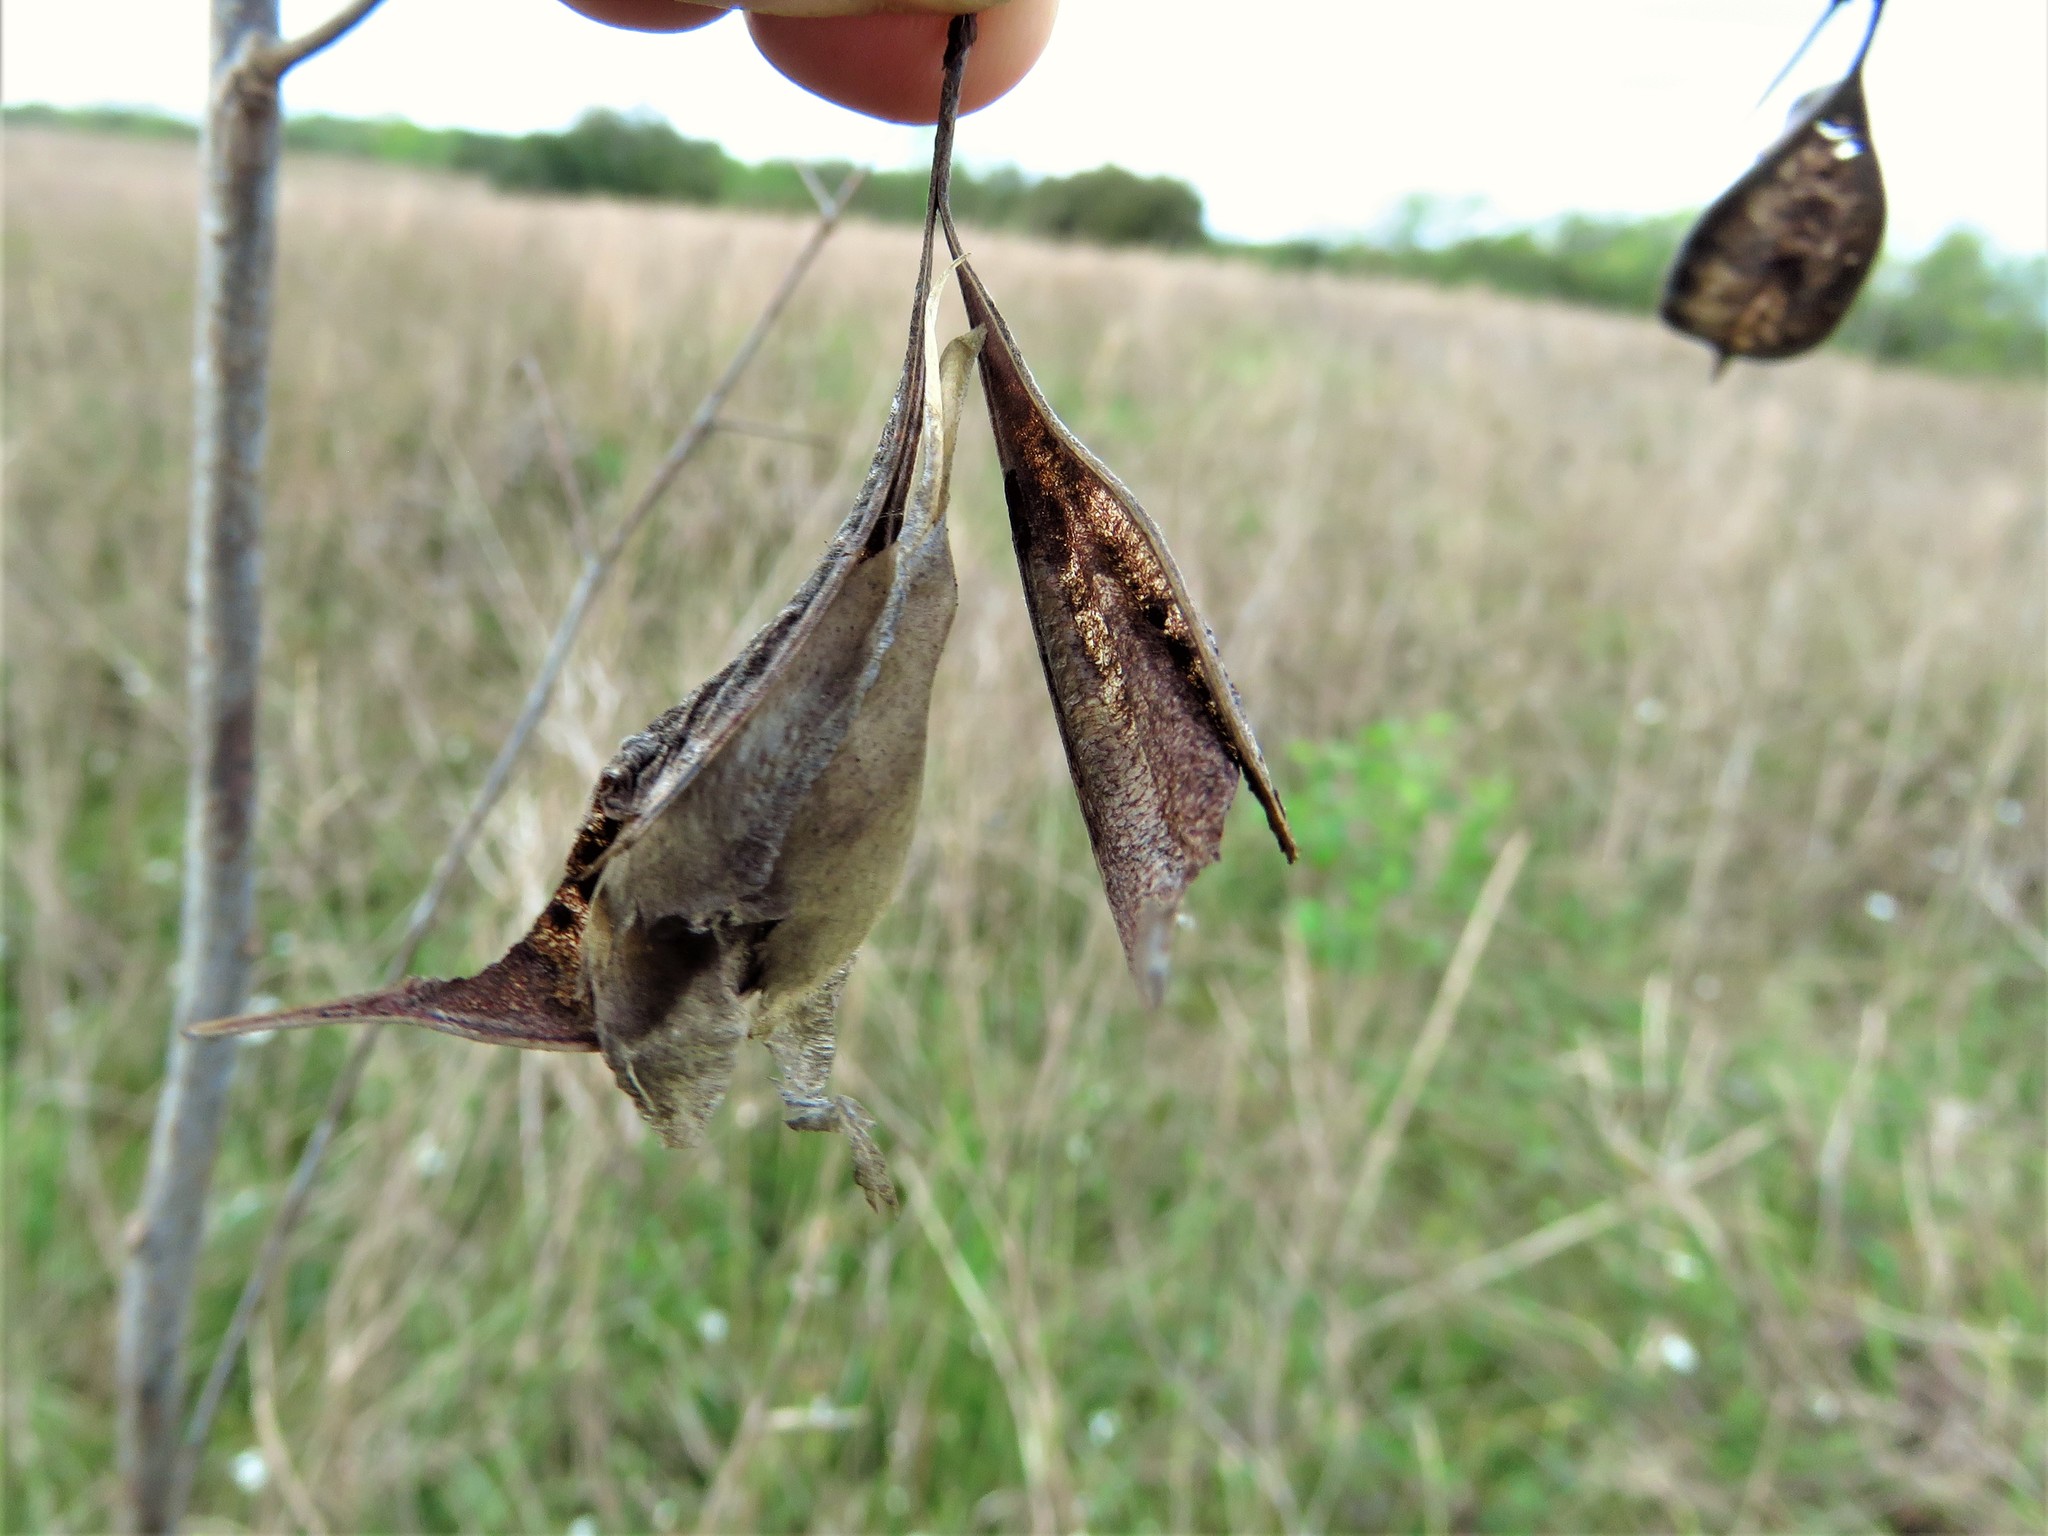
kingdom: Plantae
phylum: Tracheophyta
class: Magnoliopsida
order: Fabales
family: Fabaceae
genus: Sesbania
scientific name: Sesbania vesicaria
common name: Bagpod
